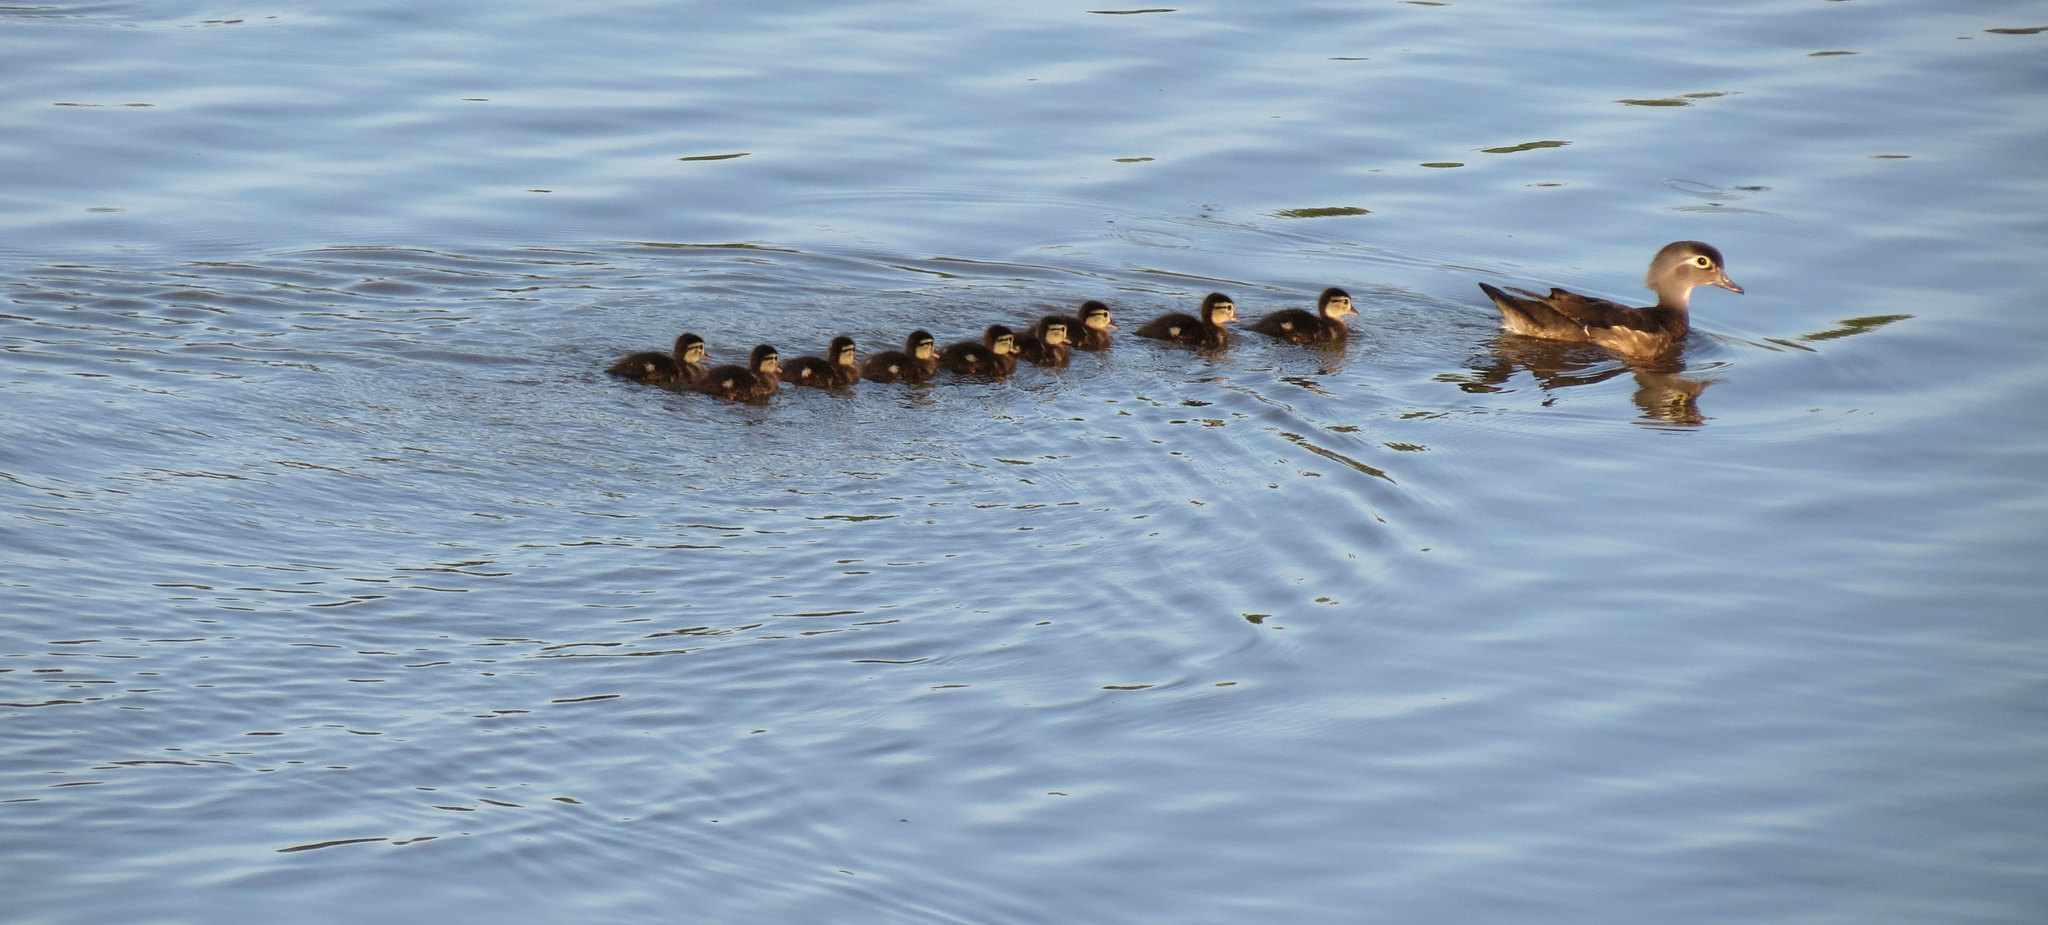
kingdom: Animalia
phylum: Chordata
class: Aves
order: Anseriformes
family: Anatidae
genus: Aix
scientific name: Aix sponsa
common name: Wood duck
